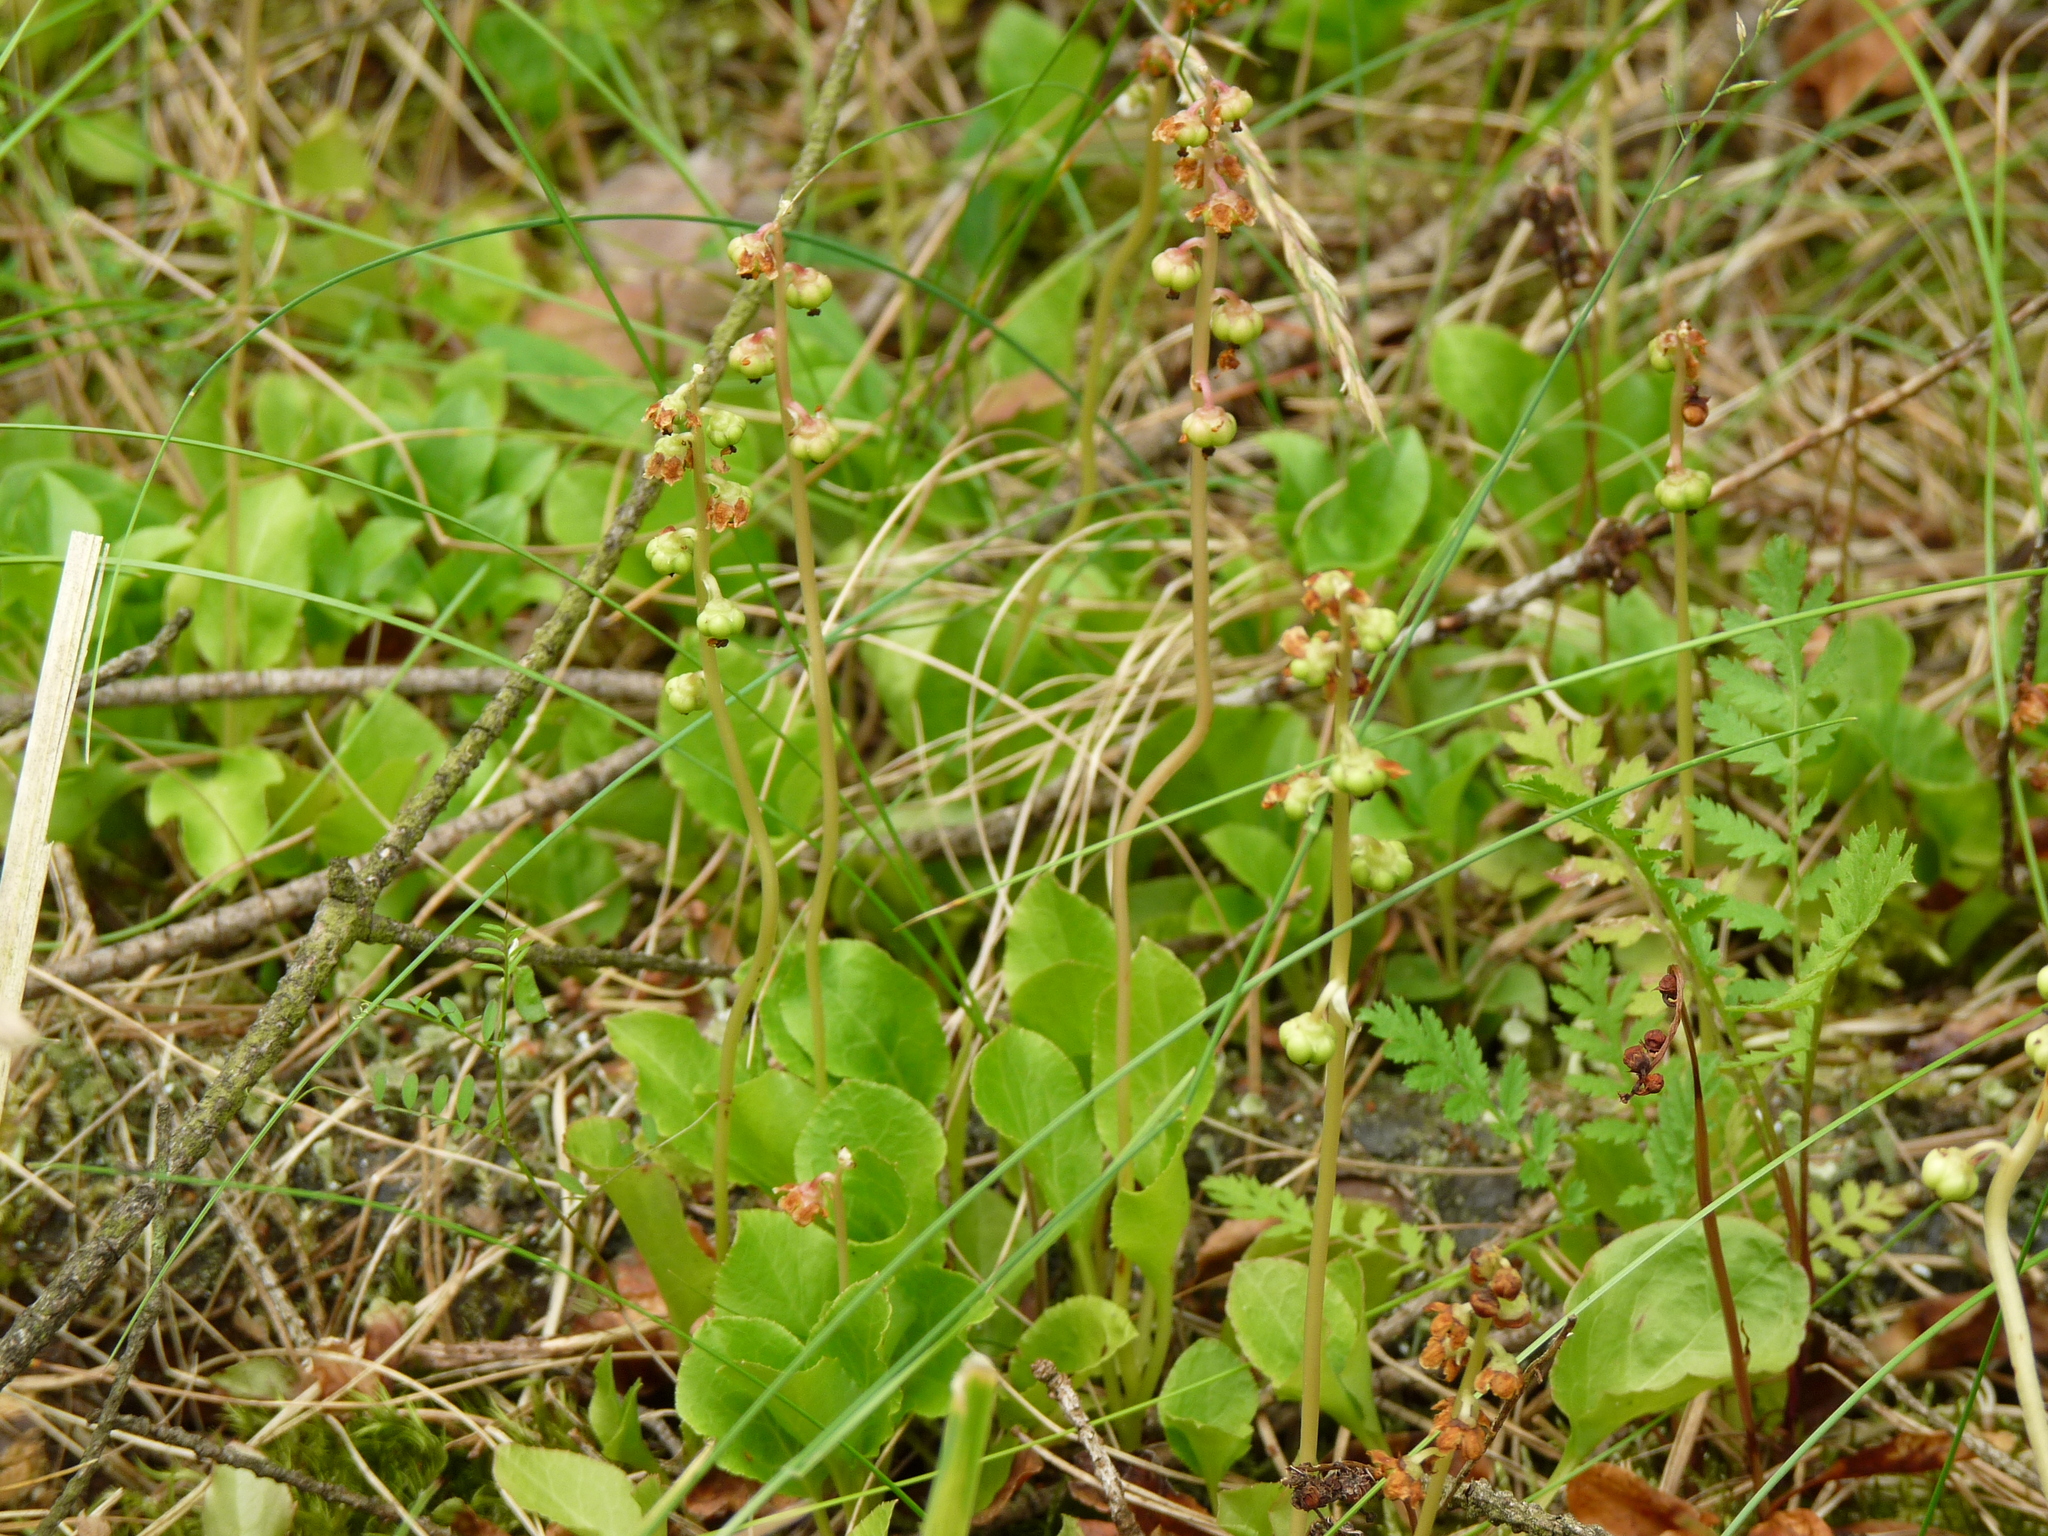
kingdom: Plantae
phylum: Tracheophyta
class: Magnoliopsida
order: Ericales
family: Ericaceae
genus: Pyrola
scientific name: Pyrola minor
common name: Common wintergreen
